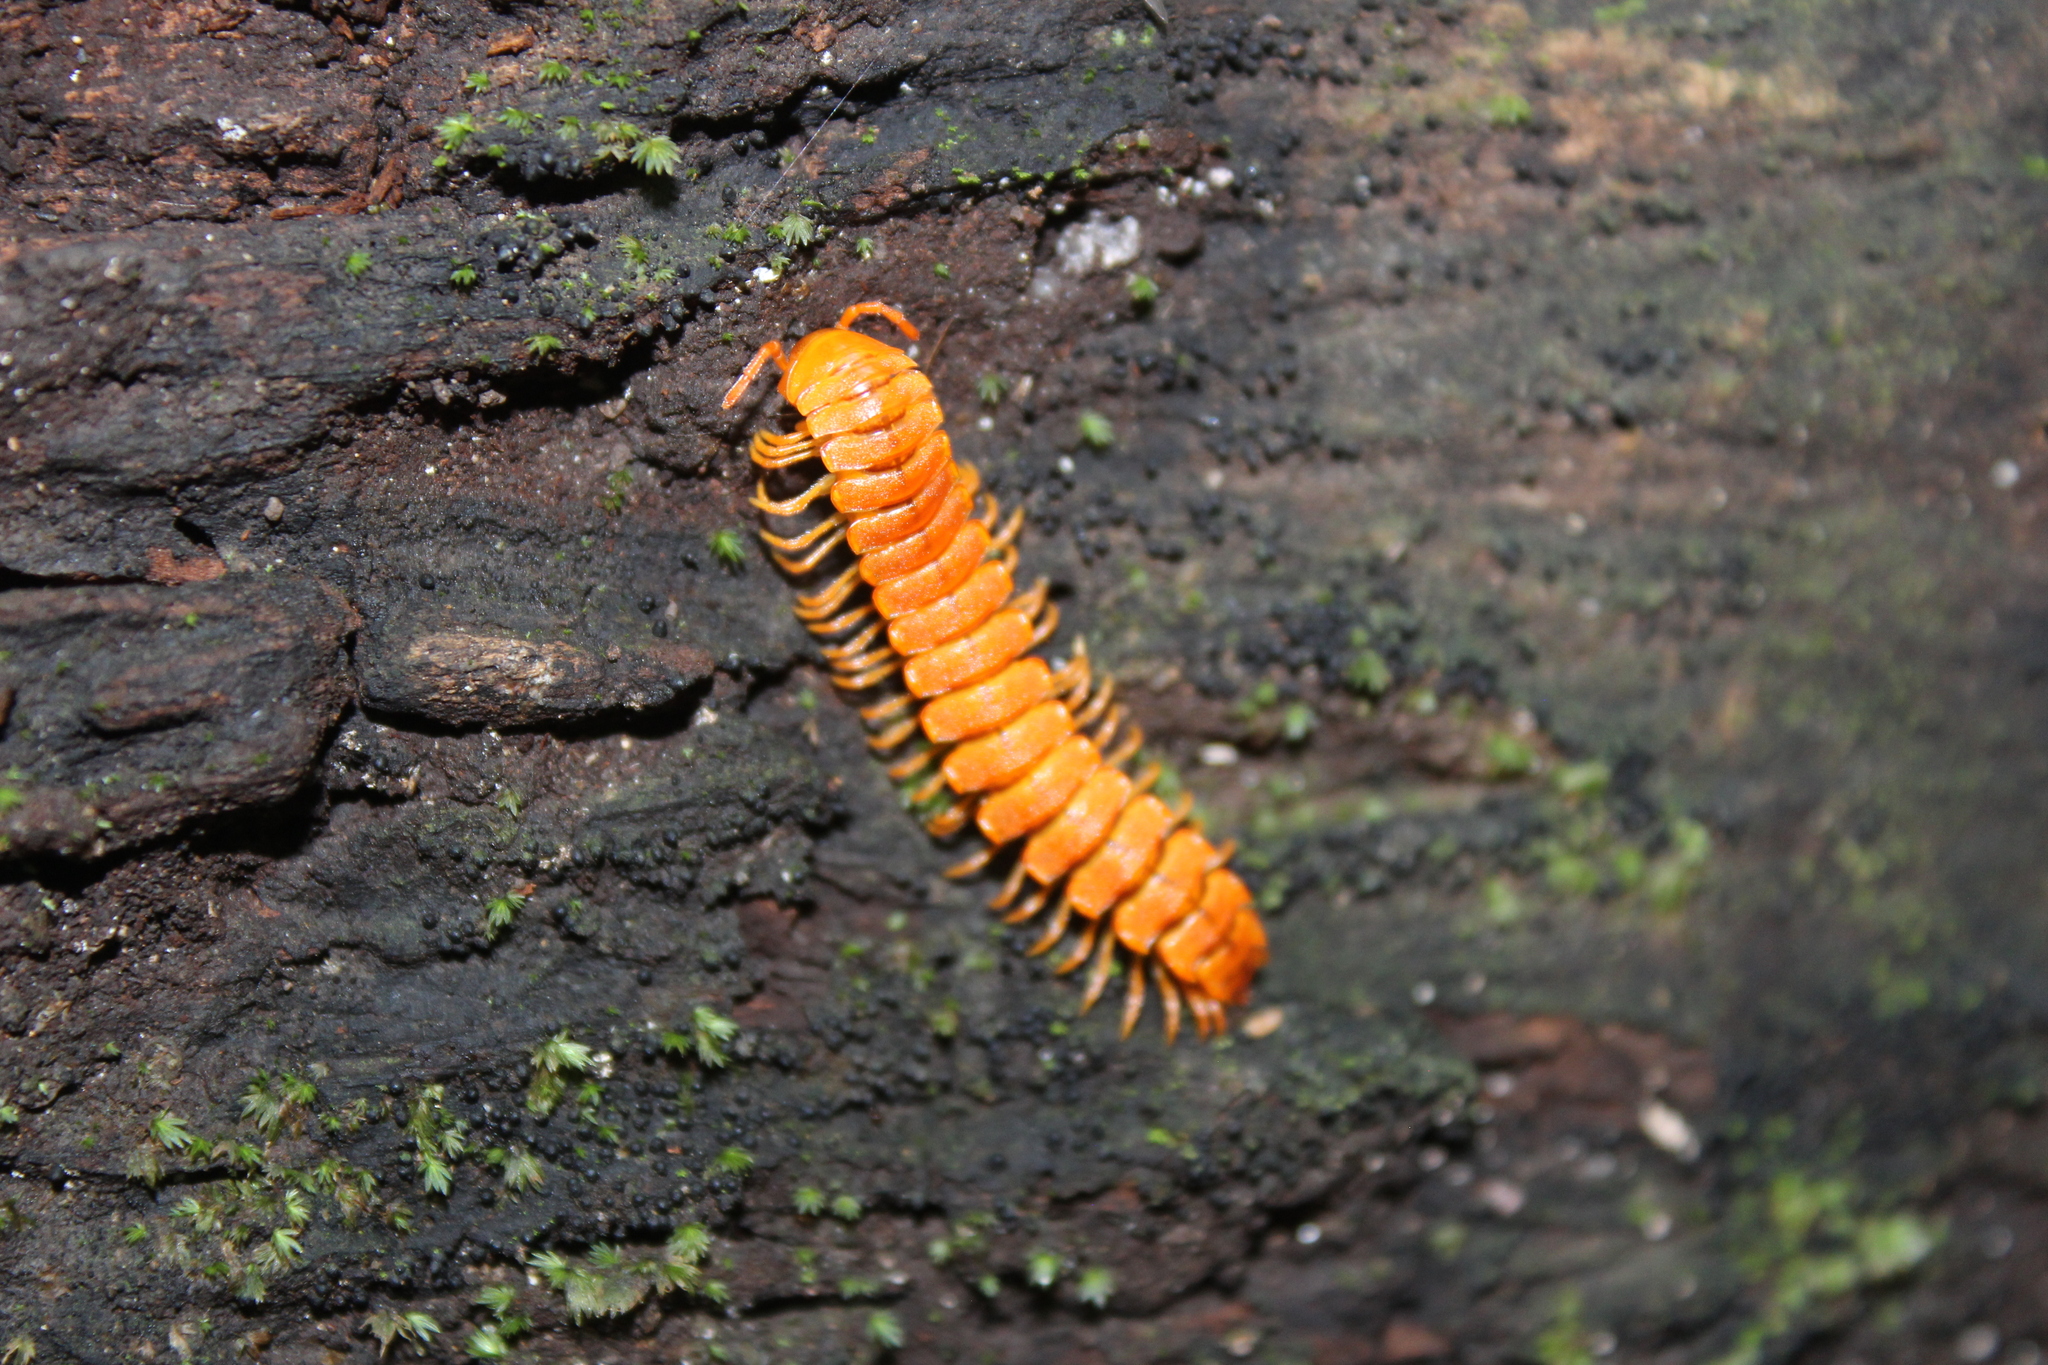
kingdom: Animalia
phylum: Arthropoda
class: Diplopoda
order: Polydesmida
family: Rhachodesmidae
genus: Aceratophallus
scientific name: Aceratophallus maya
